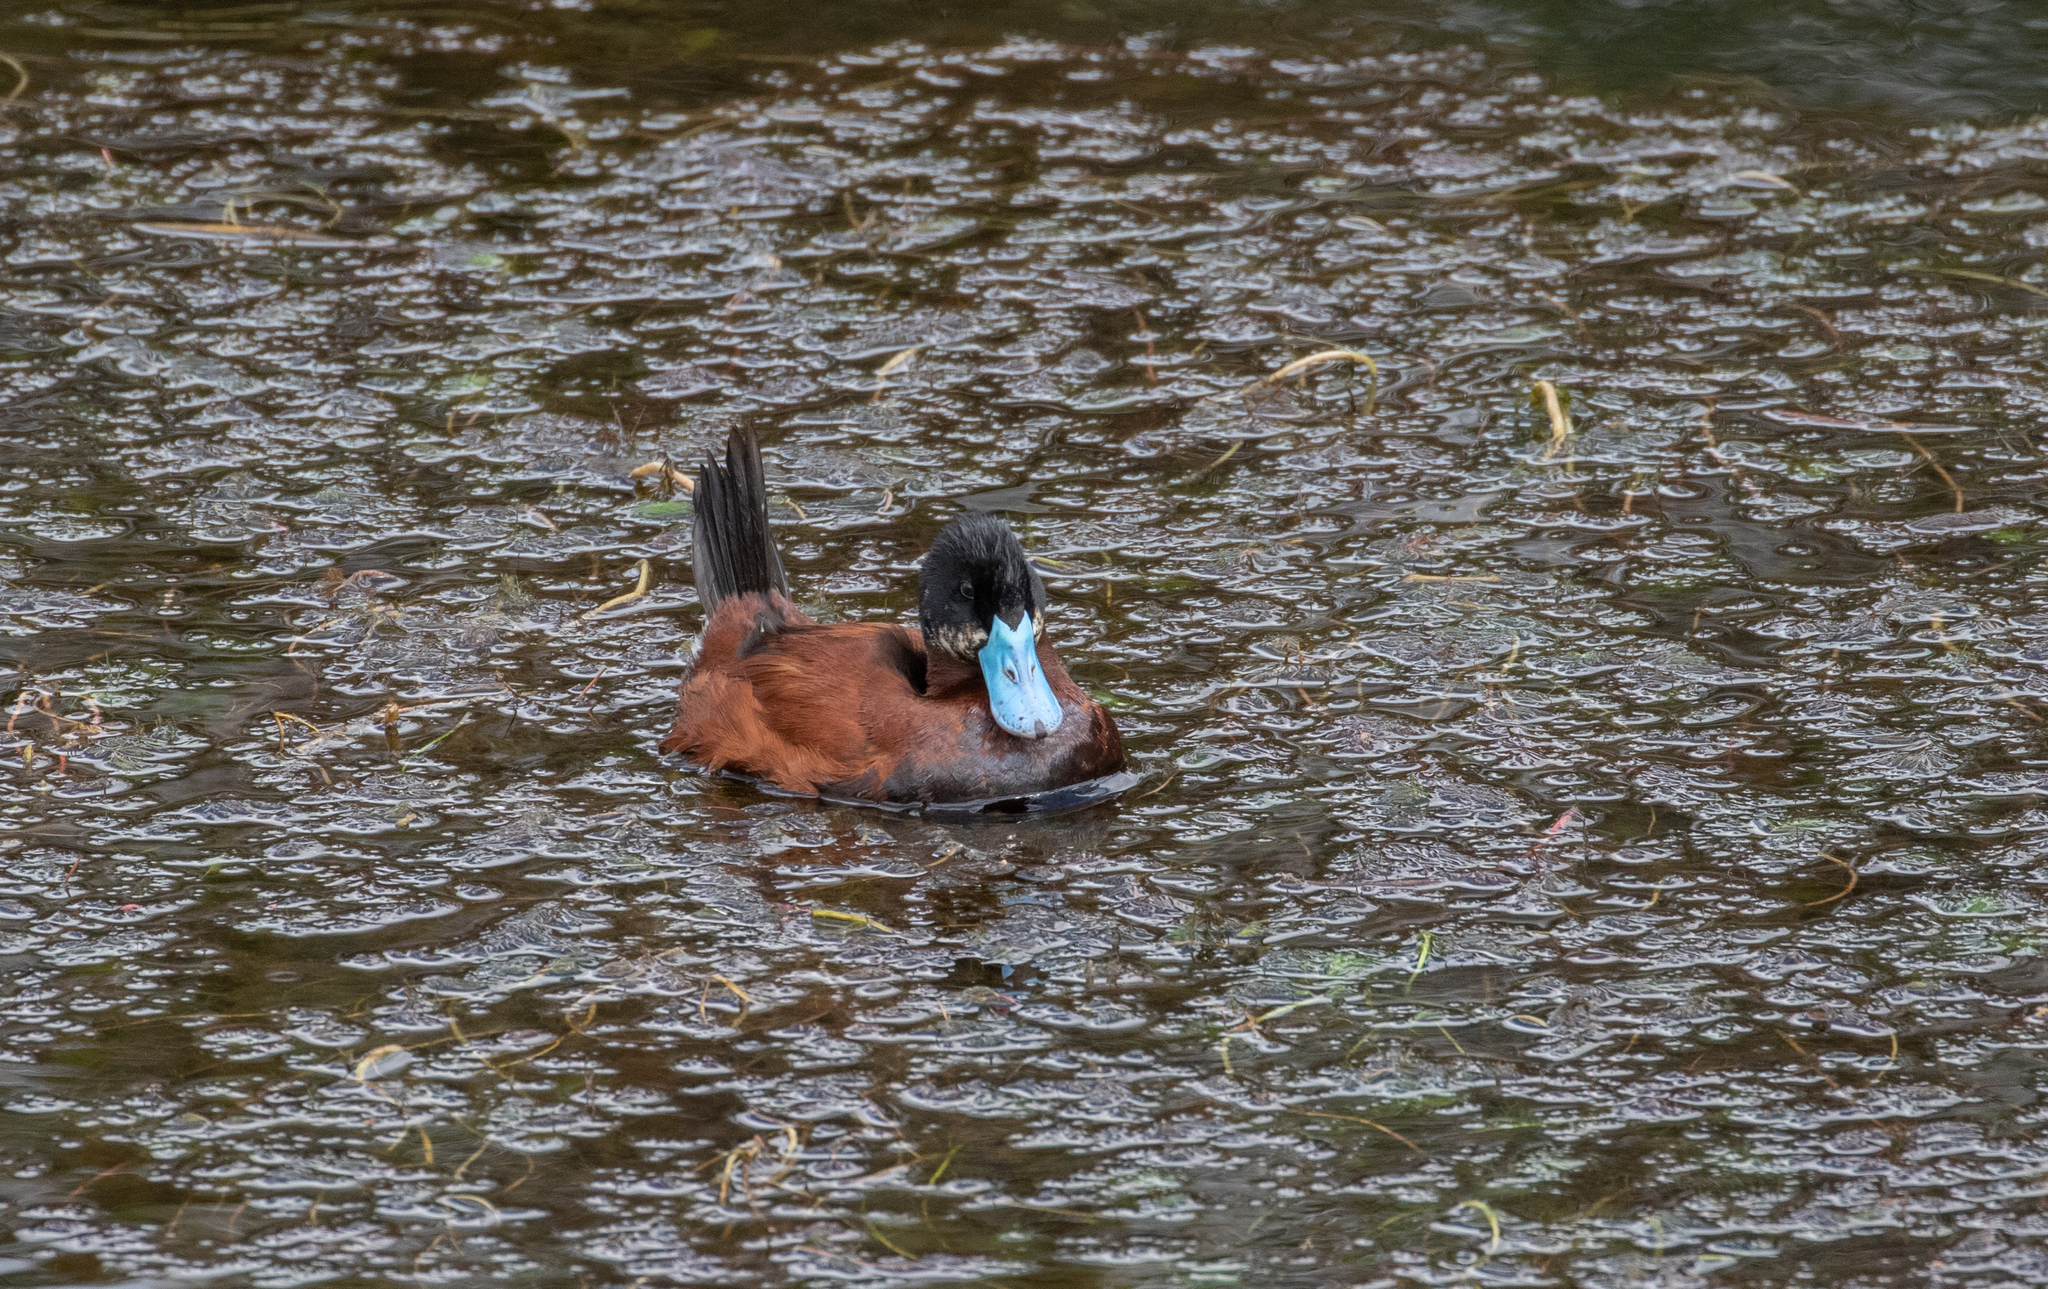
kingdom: Animalia
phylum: Chordata
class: Aves
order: Anseriformes
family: Anatidae
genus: Oxyura
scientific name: Oxyura ferruginea
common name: Andean duck
